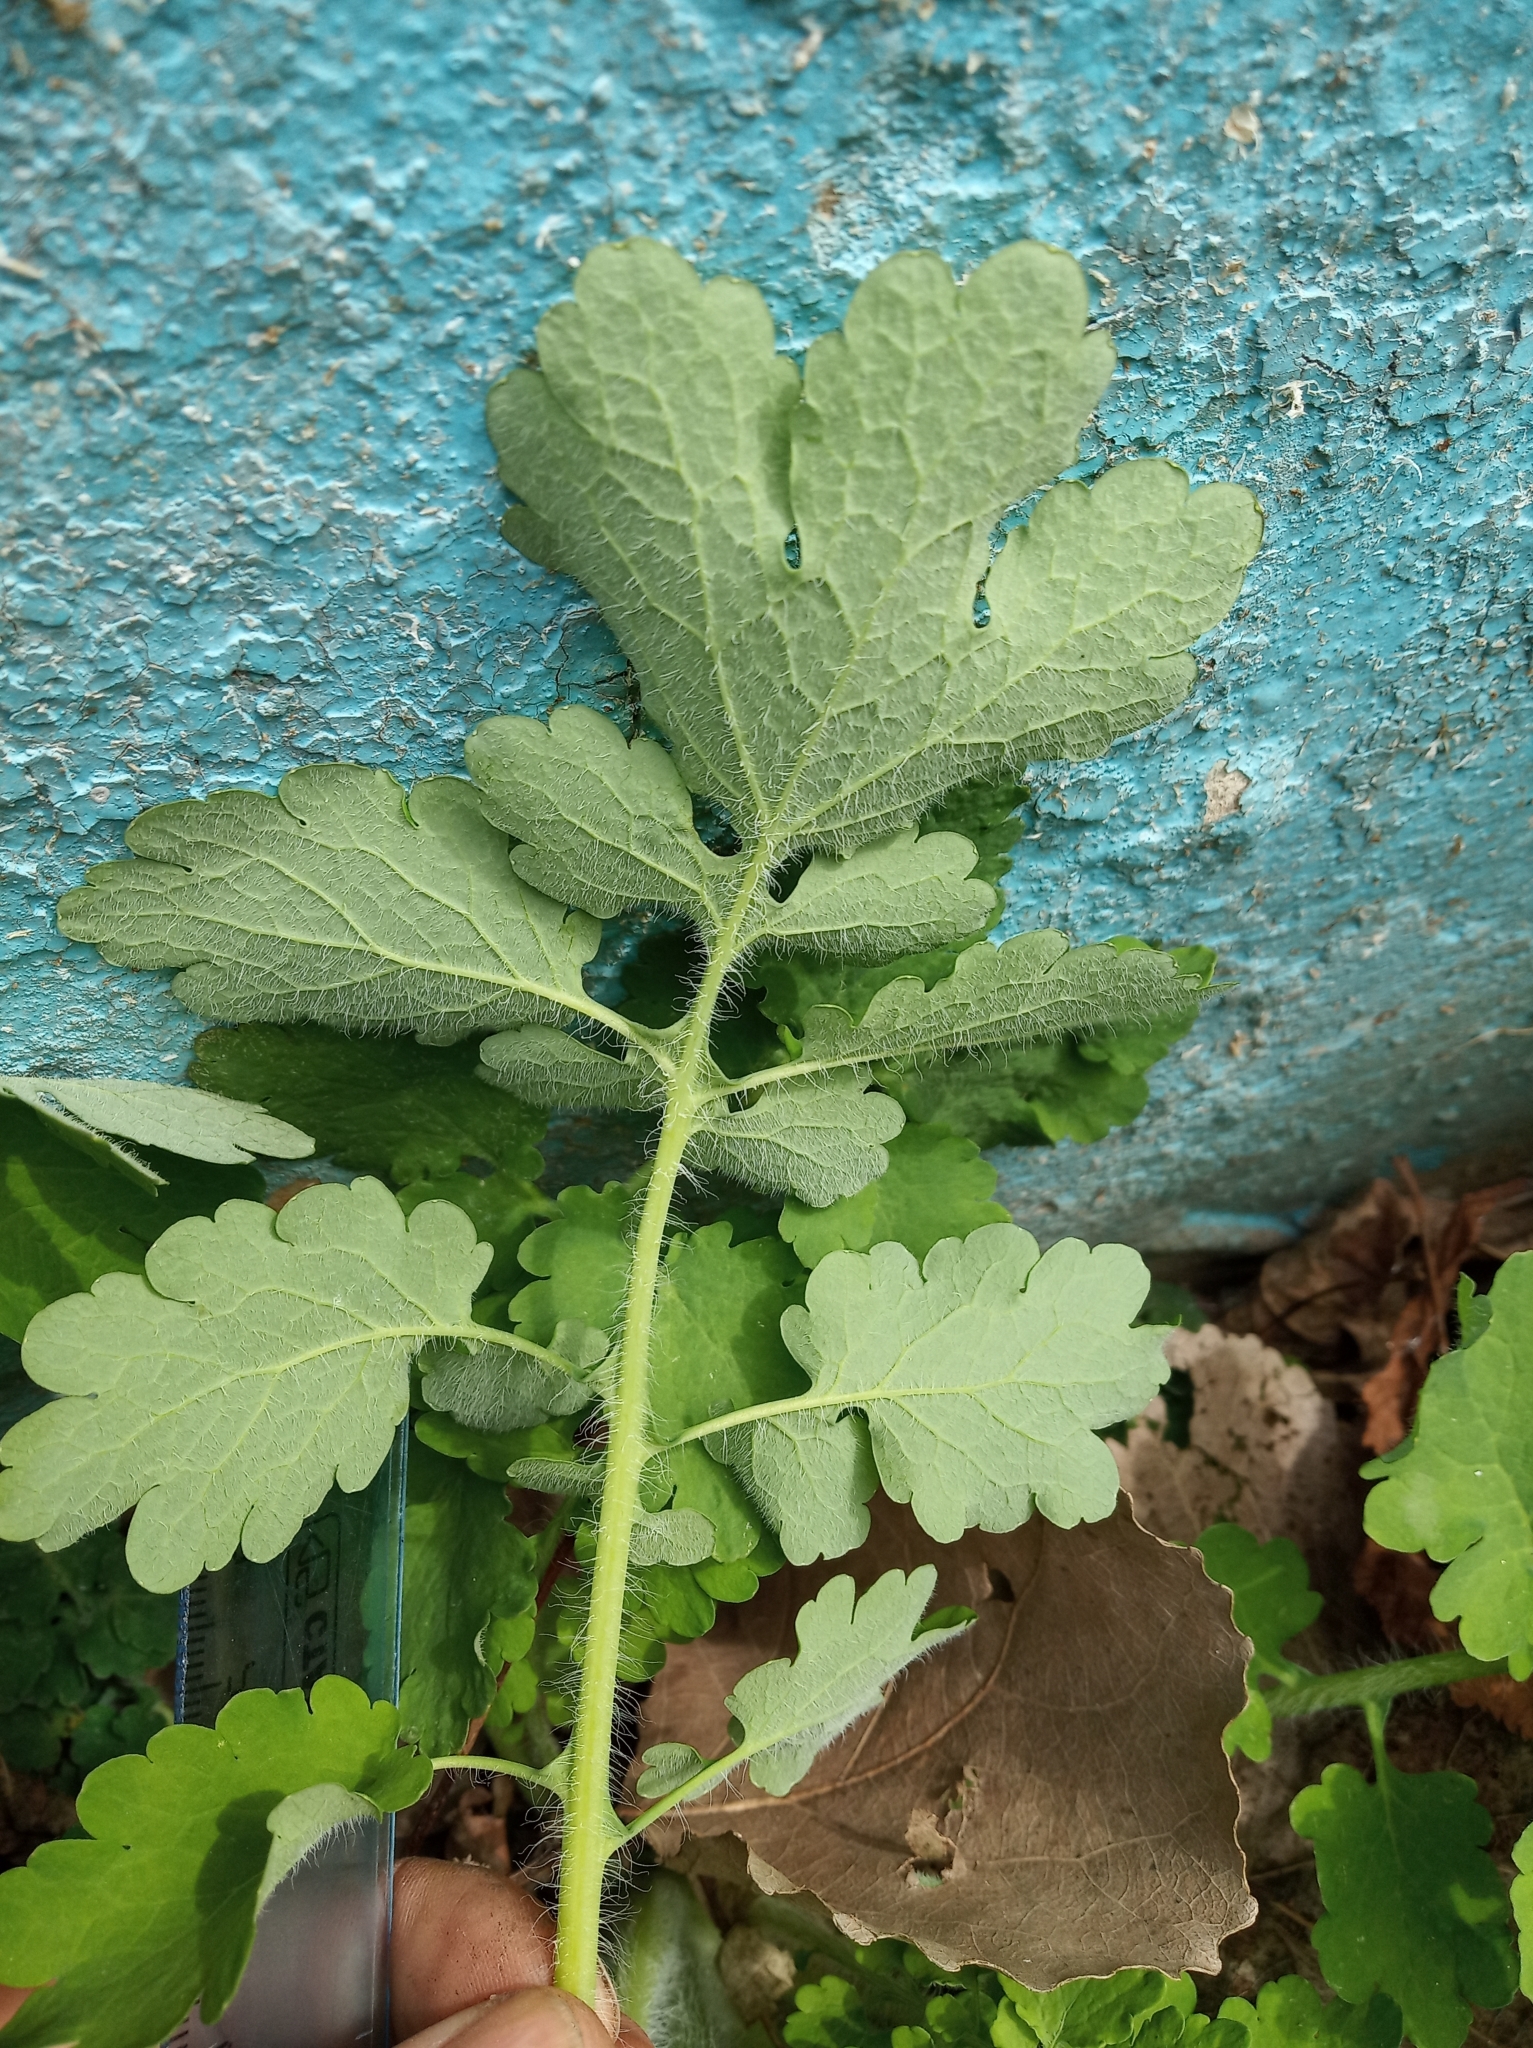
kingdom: Plantae
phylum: Tracheophyta
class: Magnoliopsida
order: Ranunculales
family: Papaveraceae
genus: Chelidonium
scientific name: Chelidonium majus
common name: Greater celandine
